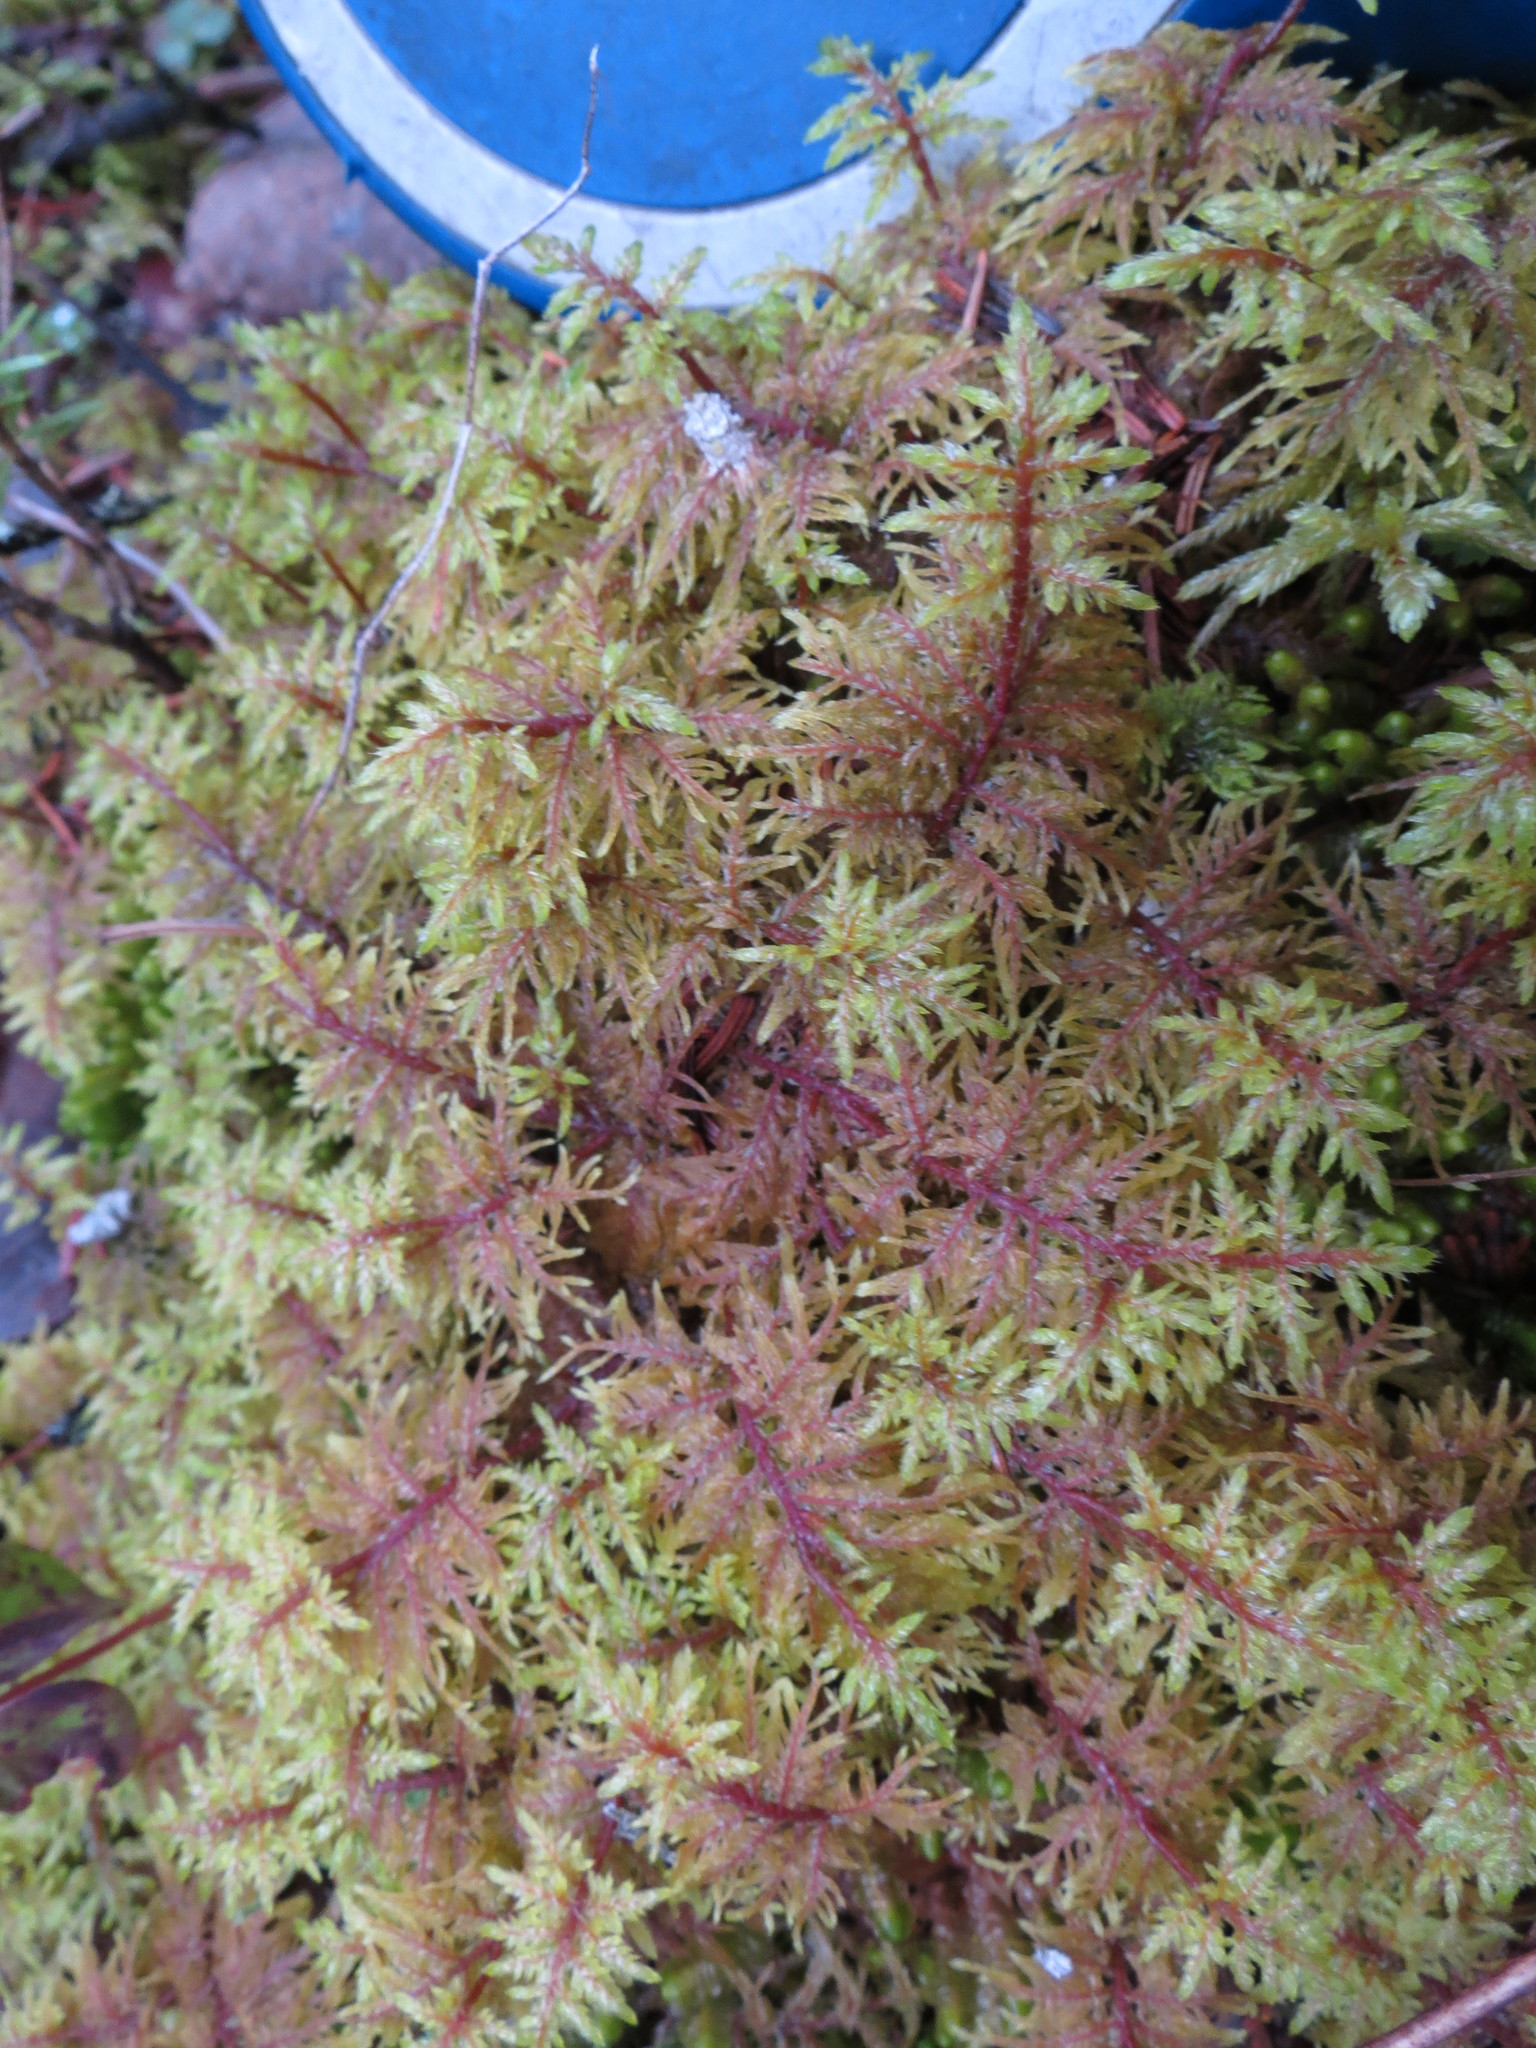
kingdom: Plantae
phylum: Bryophyta
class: Bryopsida
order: Hypnales
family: Hylocomiaceae
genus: Hylocomium
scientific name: Hylocomium splendens
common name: Stairstep moss
